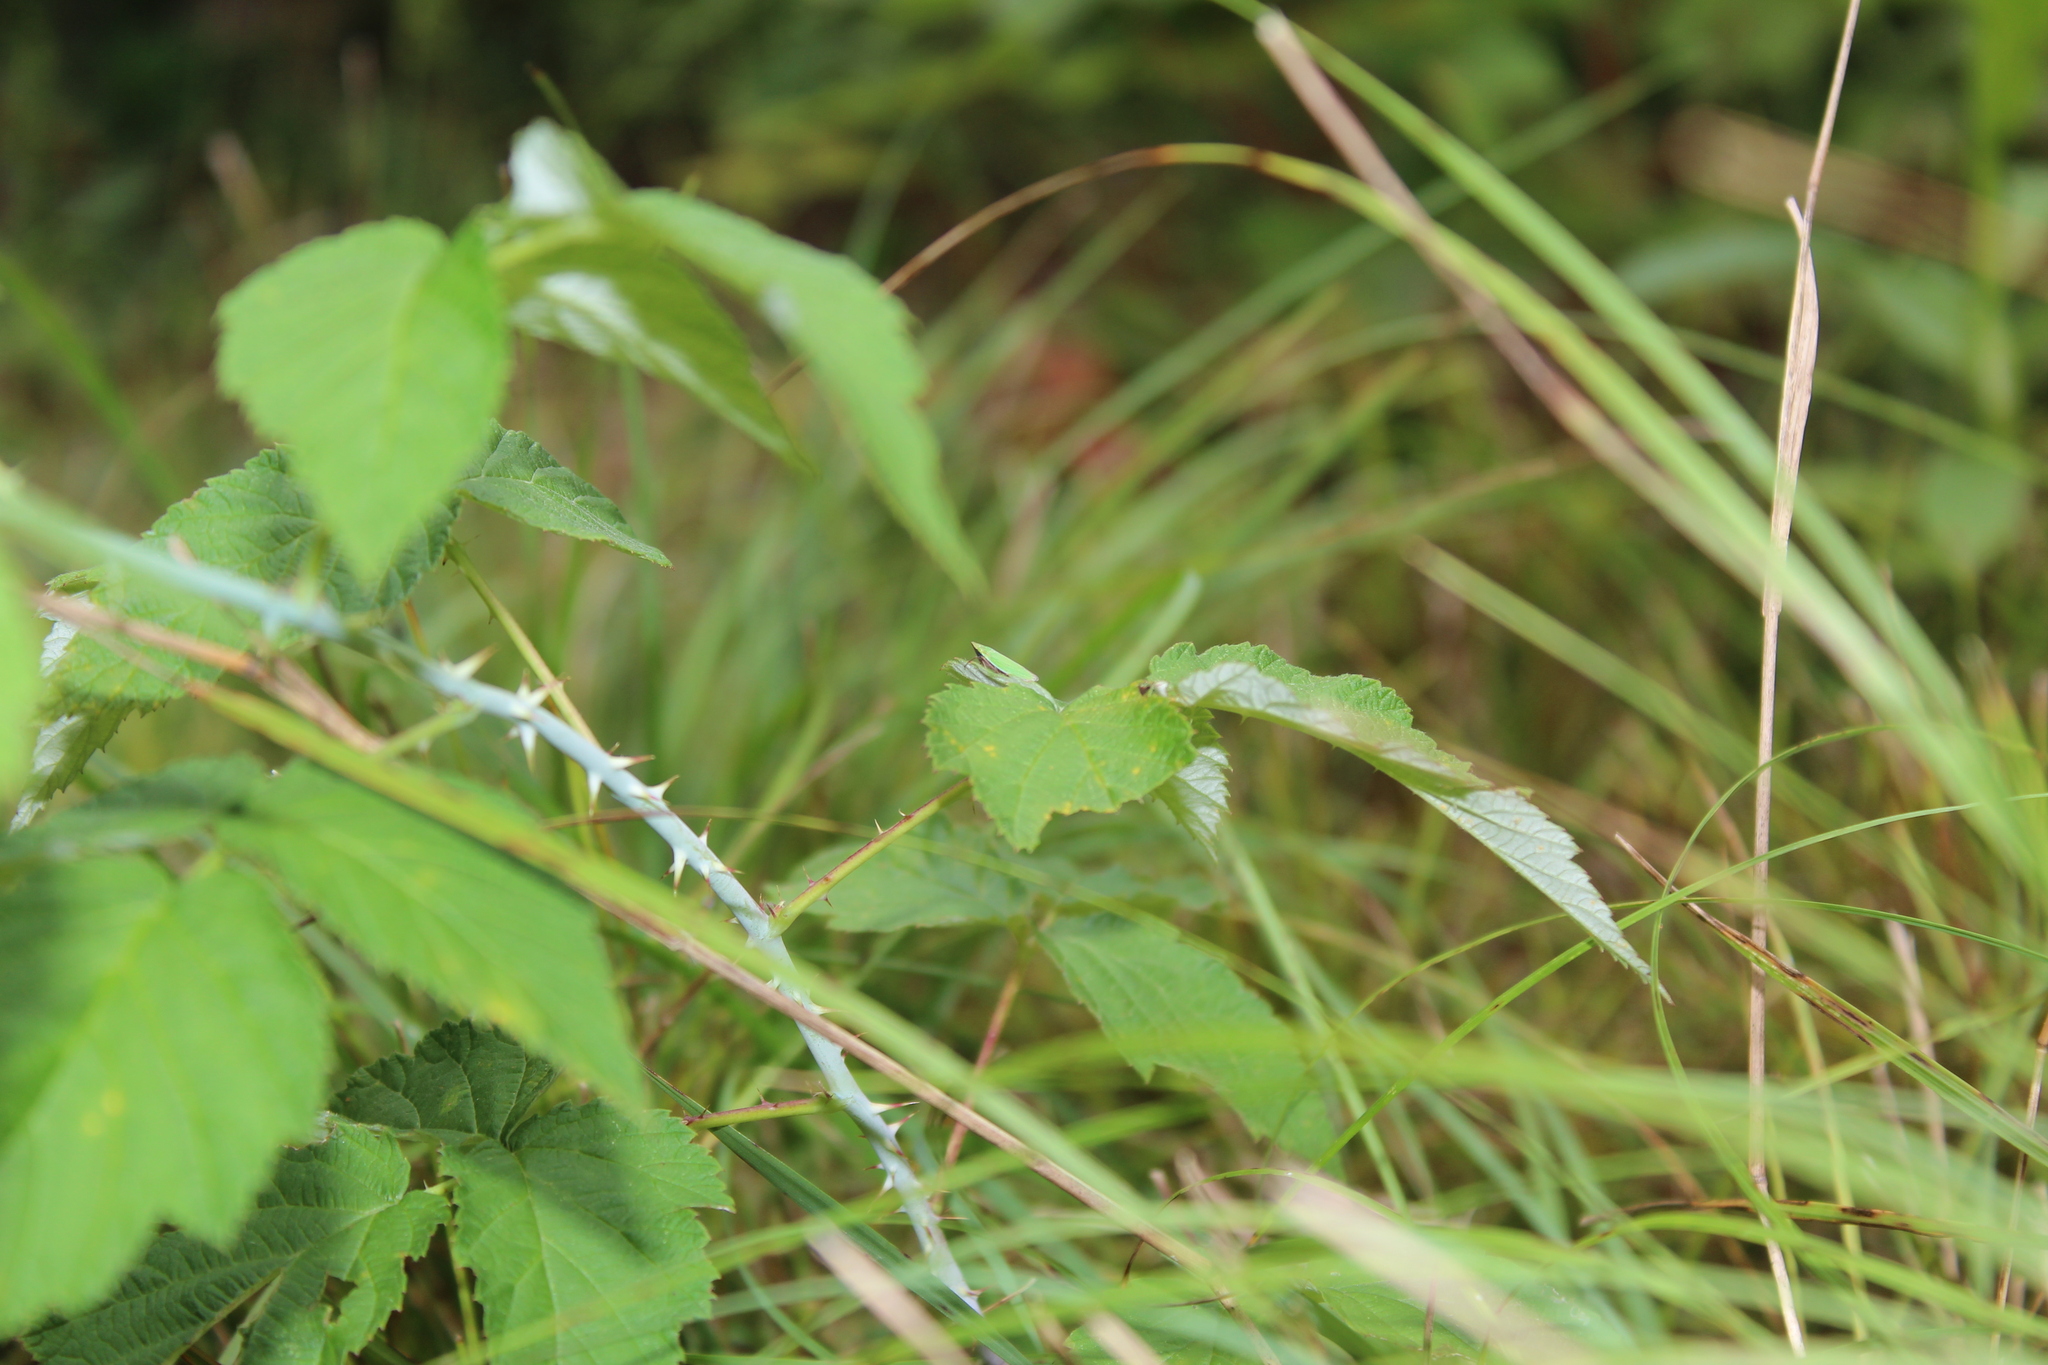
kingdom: Plantae
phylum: Tracheophyta
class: Magnoliopsida
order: Rosales
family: Rosaceae
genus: Rubus
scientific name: Rubus occidentalis
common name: Black raspberry
